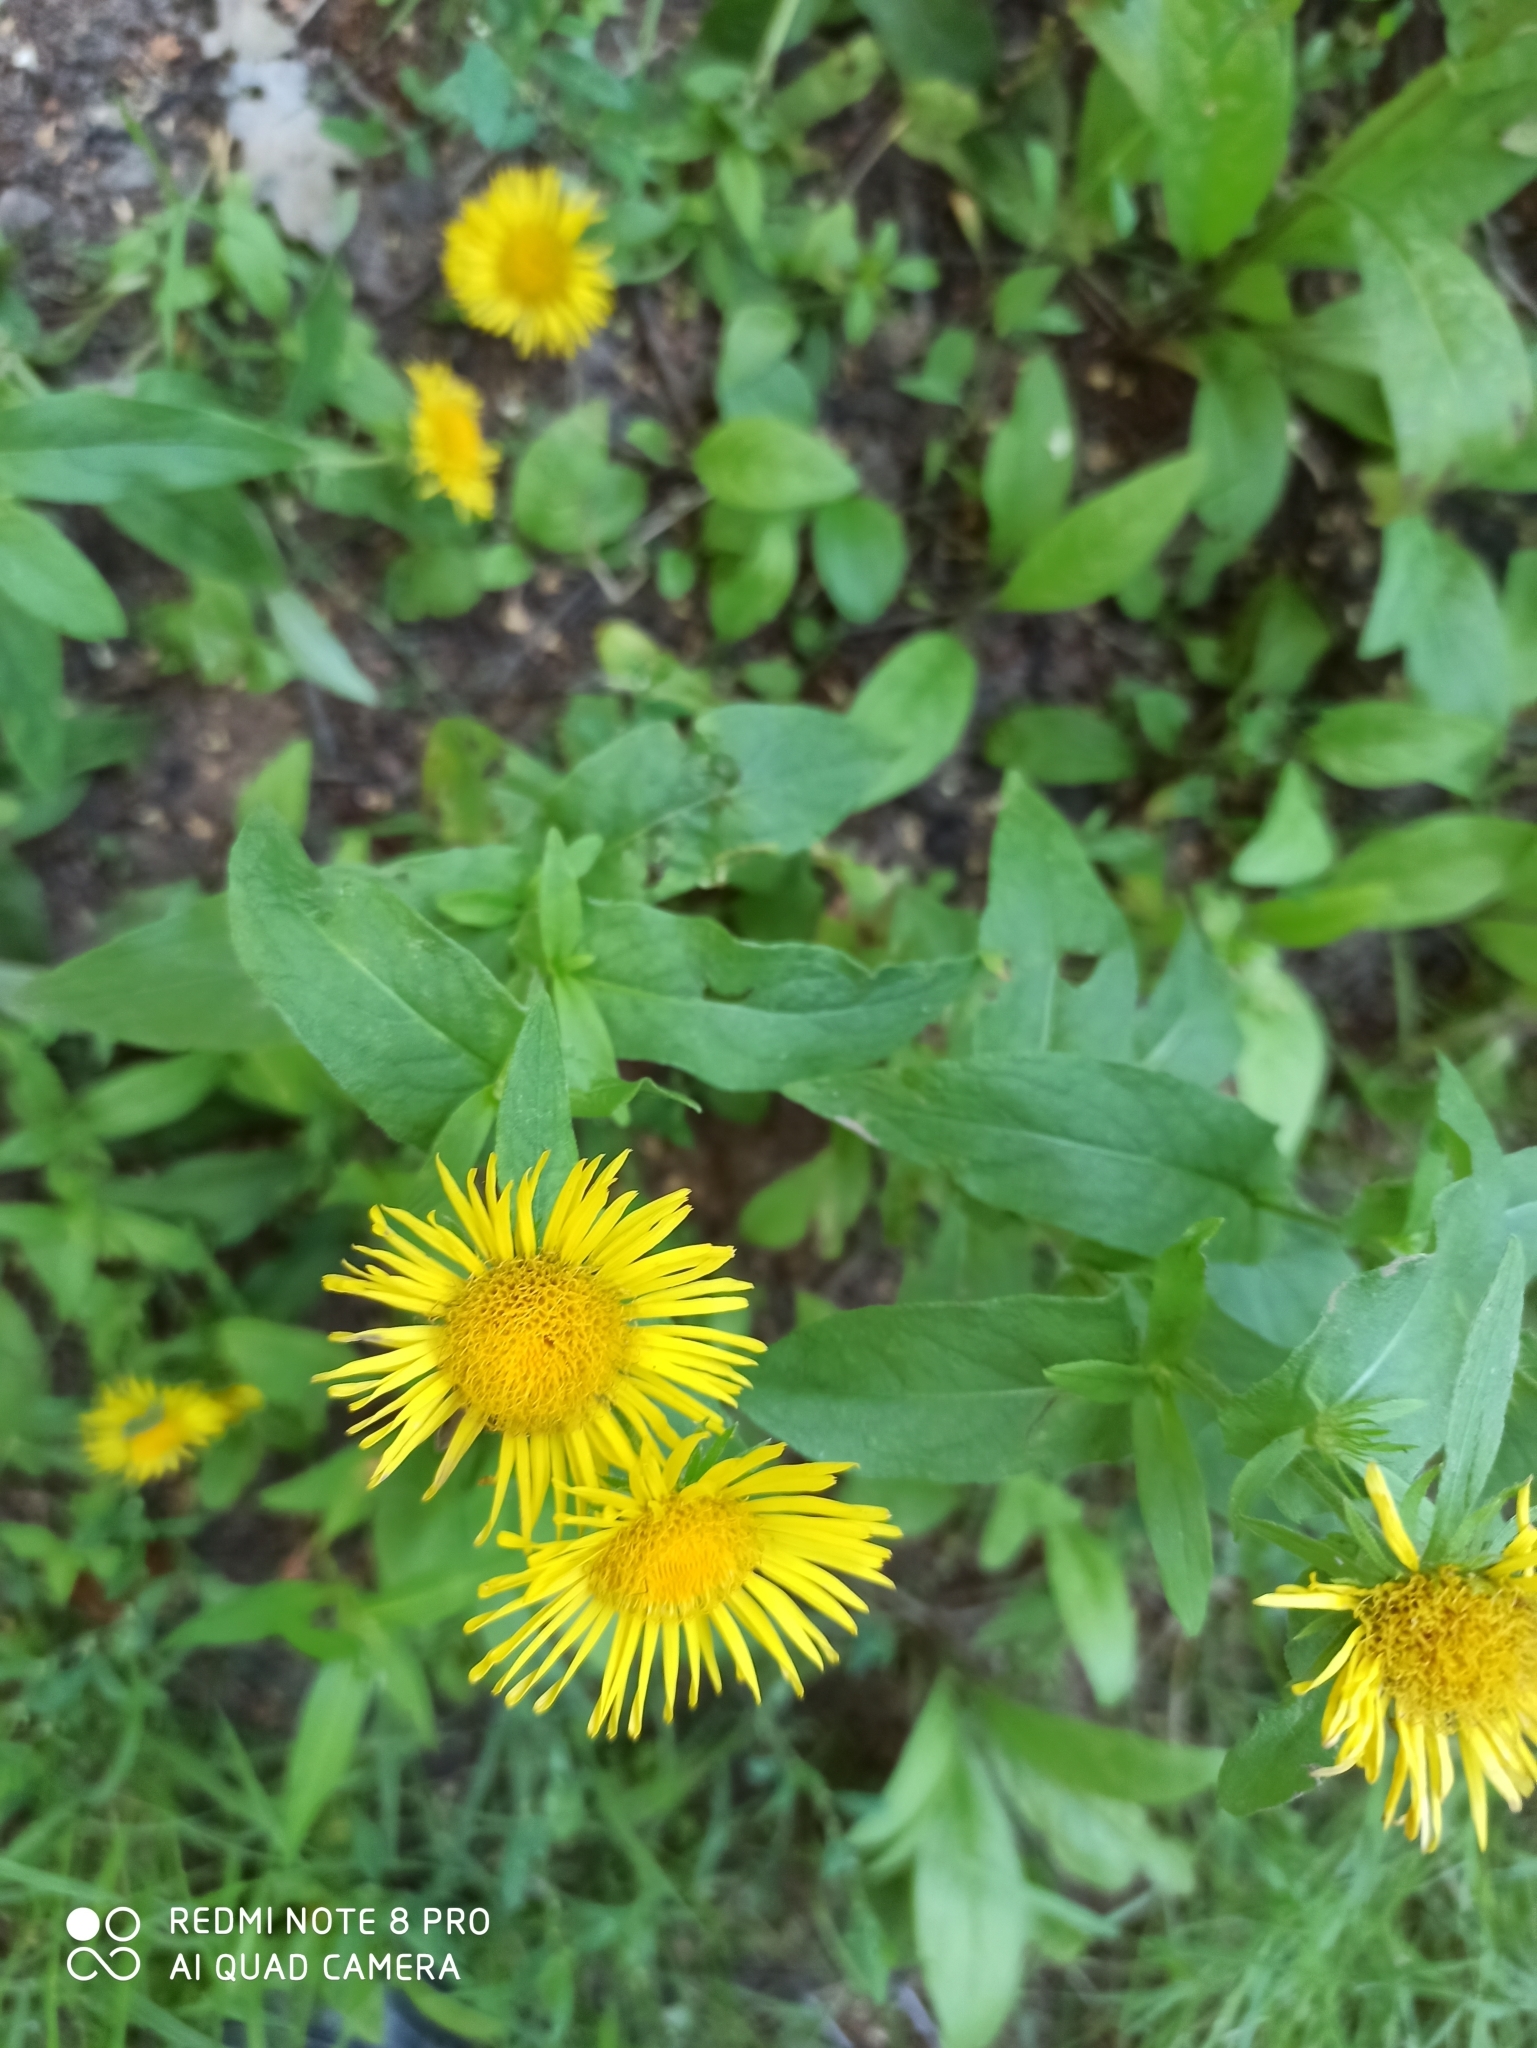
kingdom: Plantae
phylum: Tracheophyta
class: Magnoliopsida
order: Asterales
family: Asteraceae
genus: Pentanema
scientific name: Pentanema britannicum
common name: British elecampane
